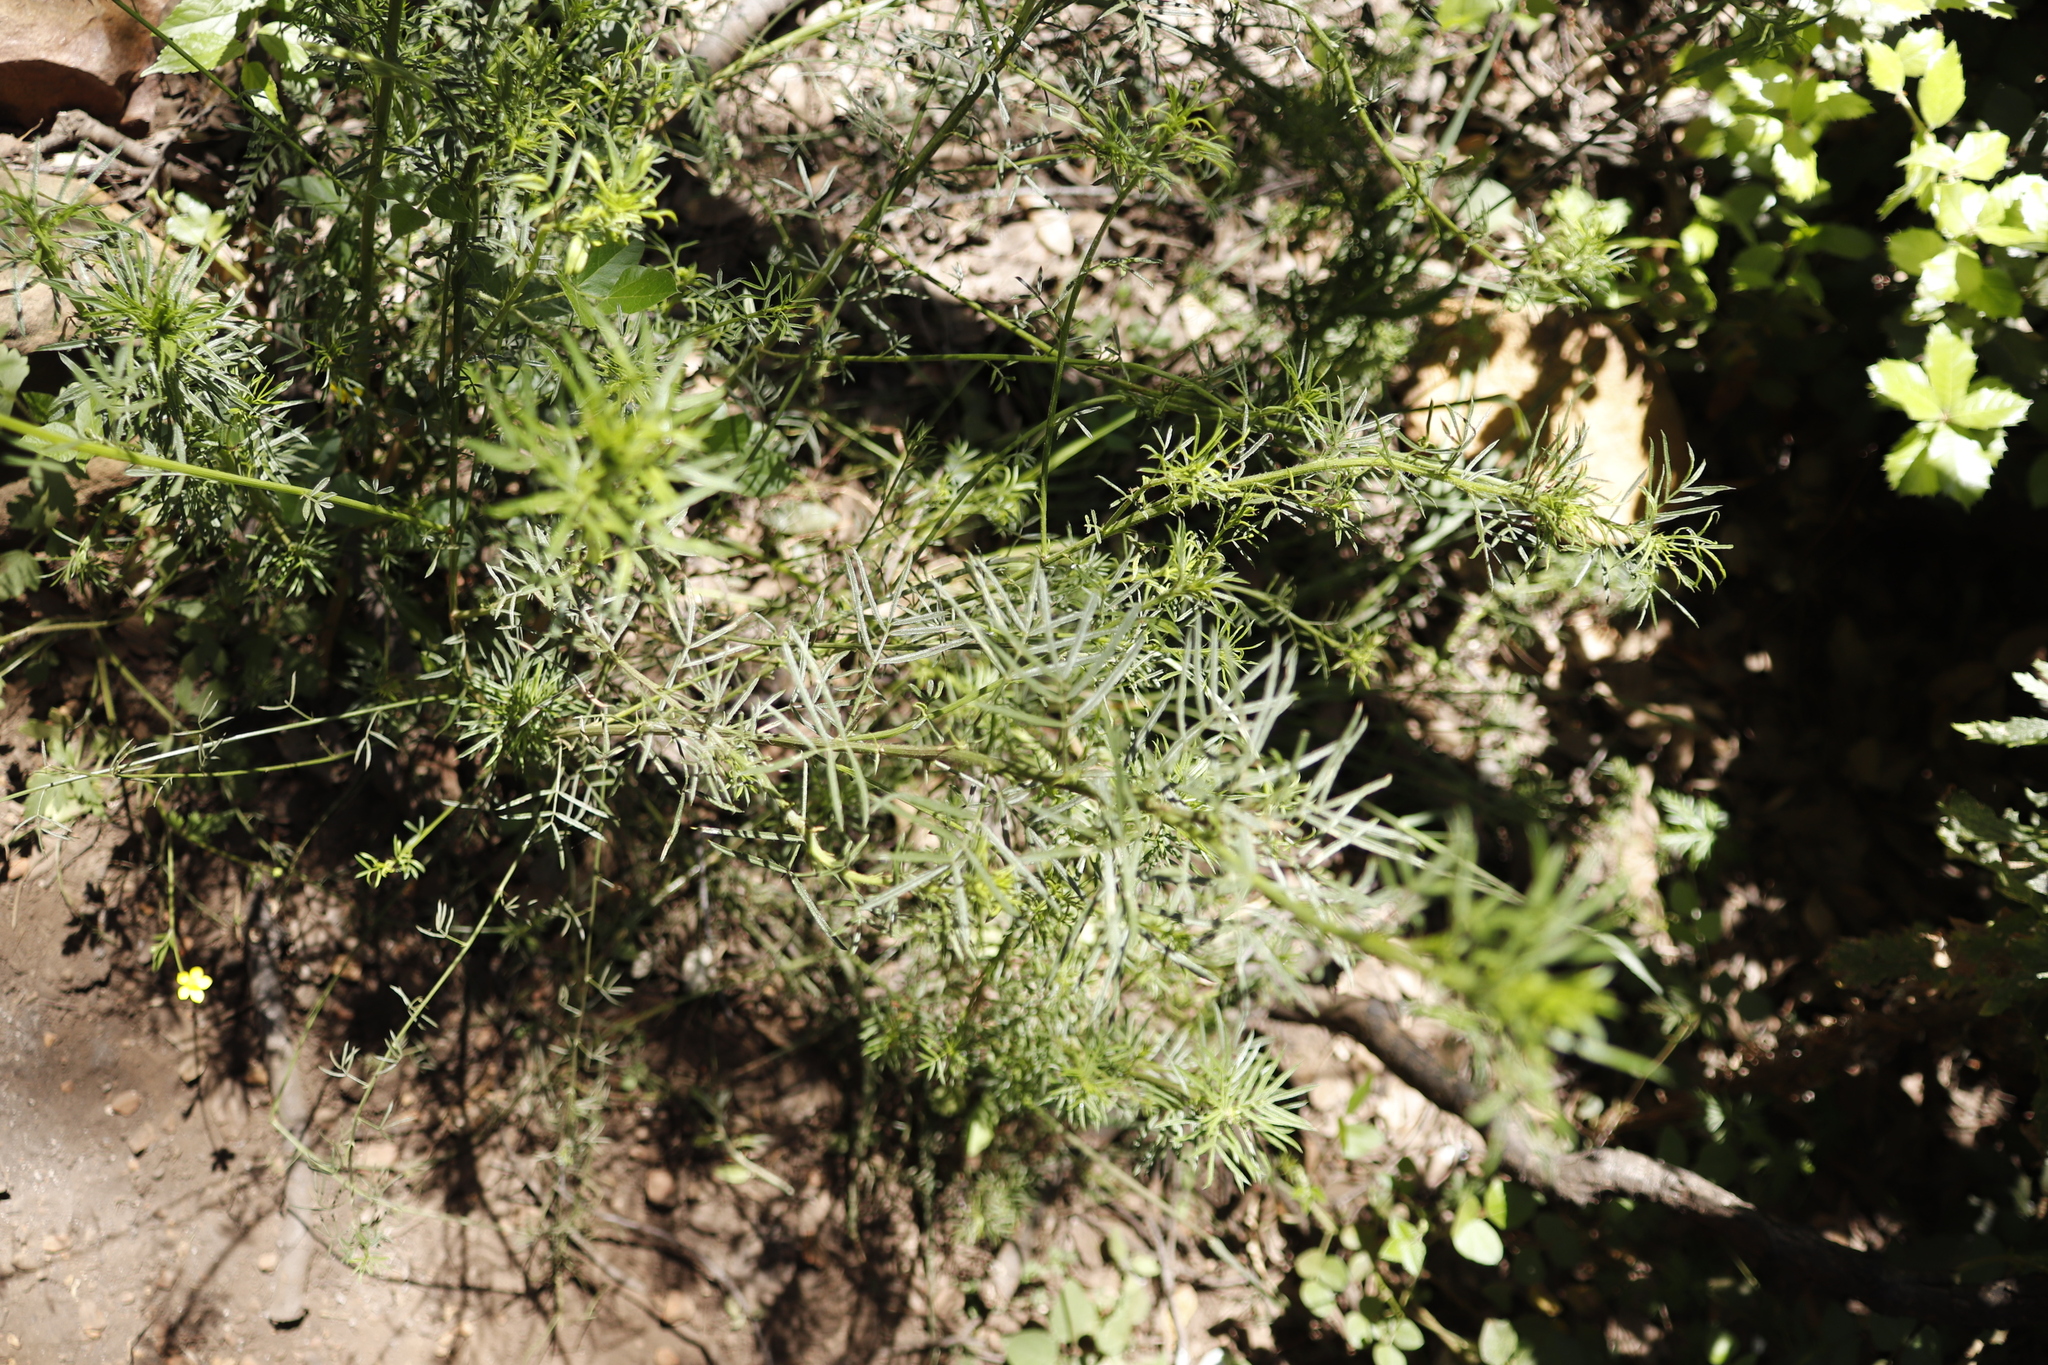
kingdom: Plantae
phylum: Tracheophyta
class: Magnoliopsida
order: Fabales
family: Fabaceae
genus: Psoralea
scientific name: Psoralea pinnata
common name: African scurfpea
